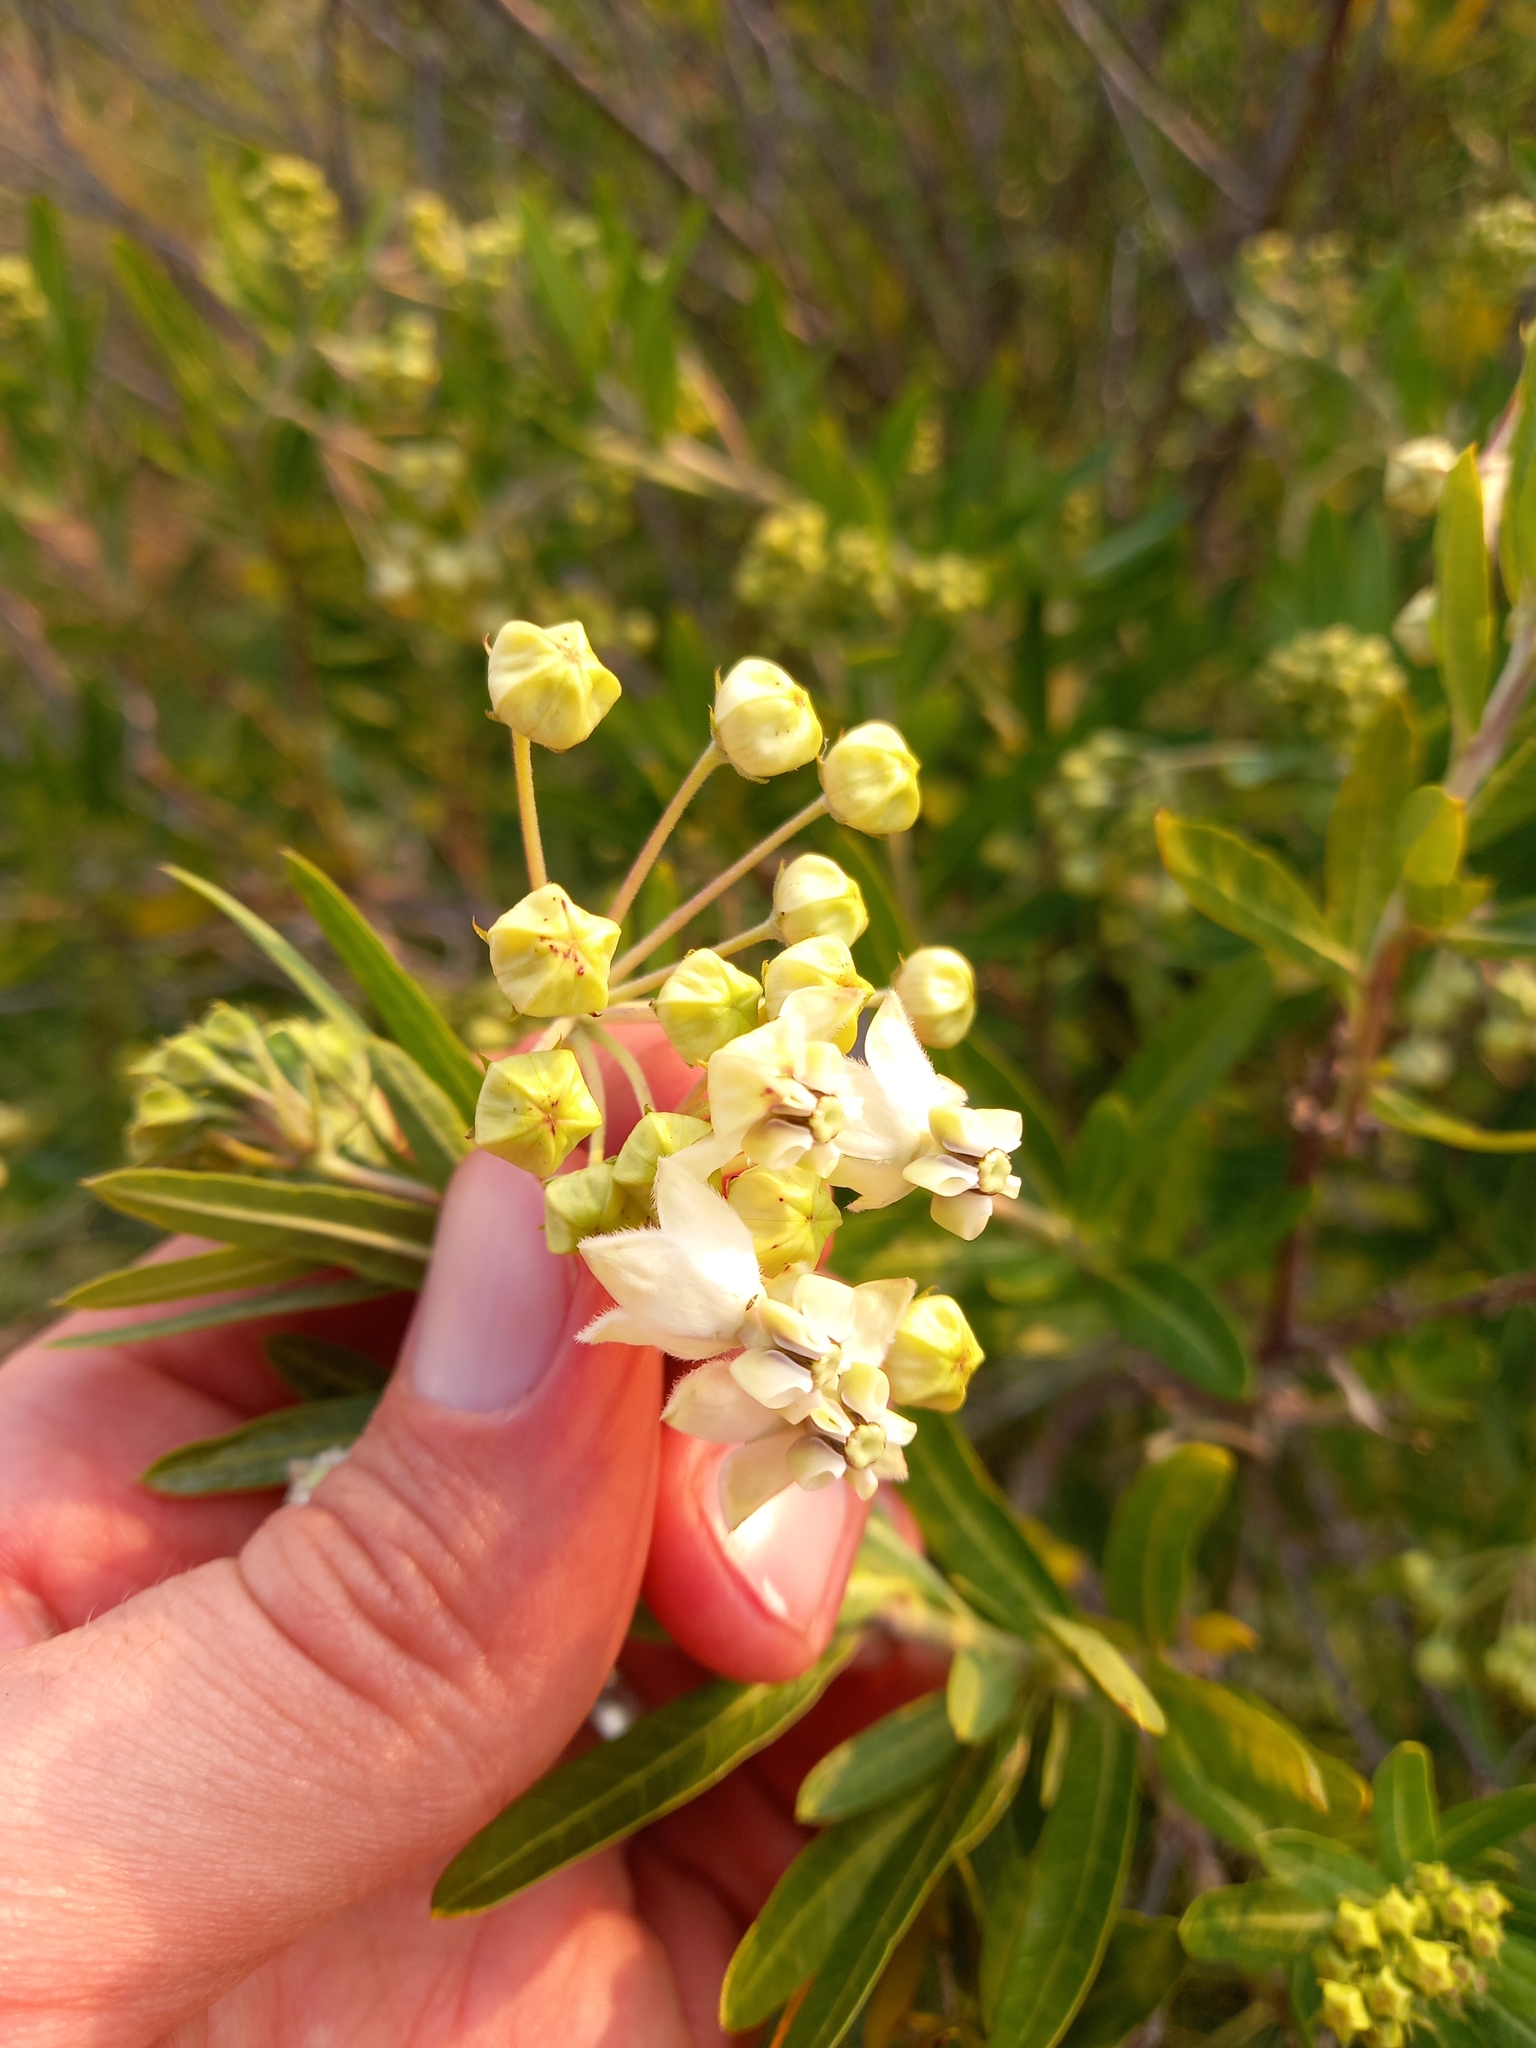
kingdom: Plantae
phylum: Tracheophyta
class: Magnoliopsida
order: Gentianales
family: Apocynaceae
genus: Gomphocarpus
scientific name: Gomphocarpus physocarpus
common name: Balloon cotton bush
